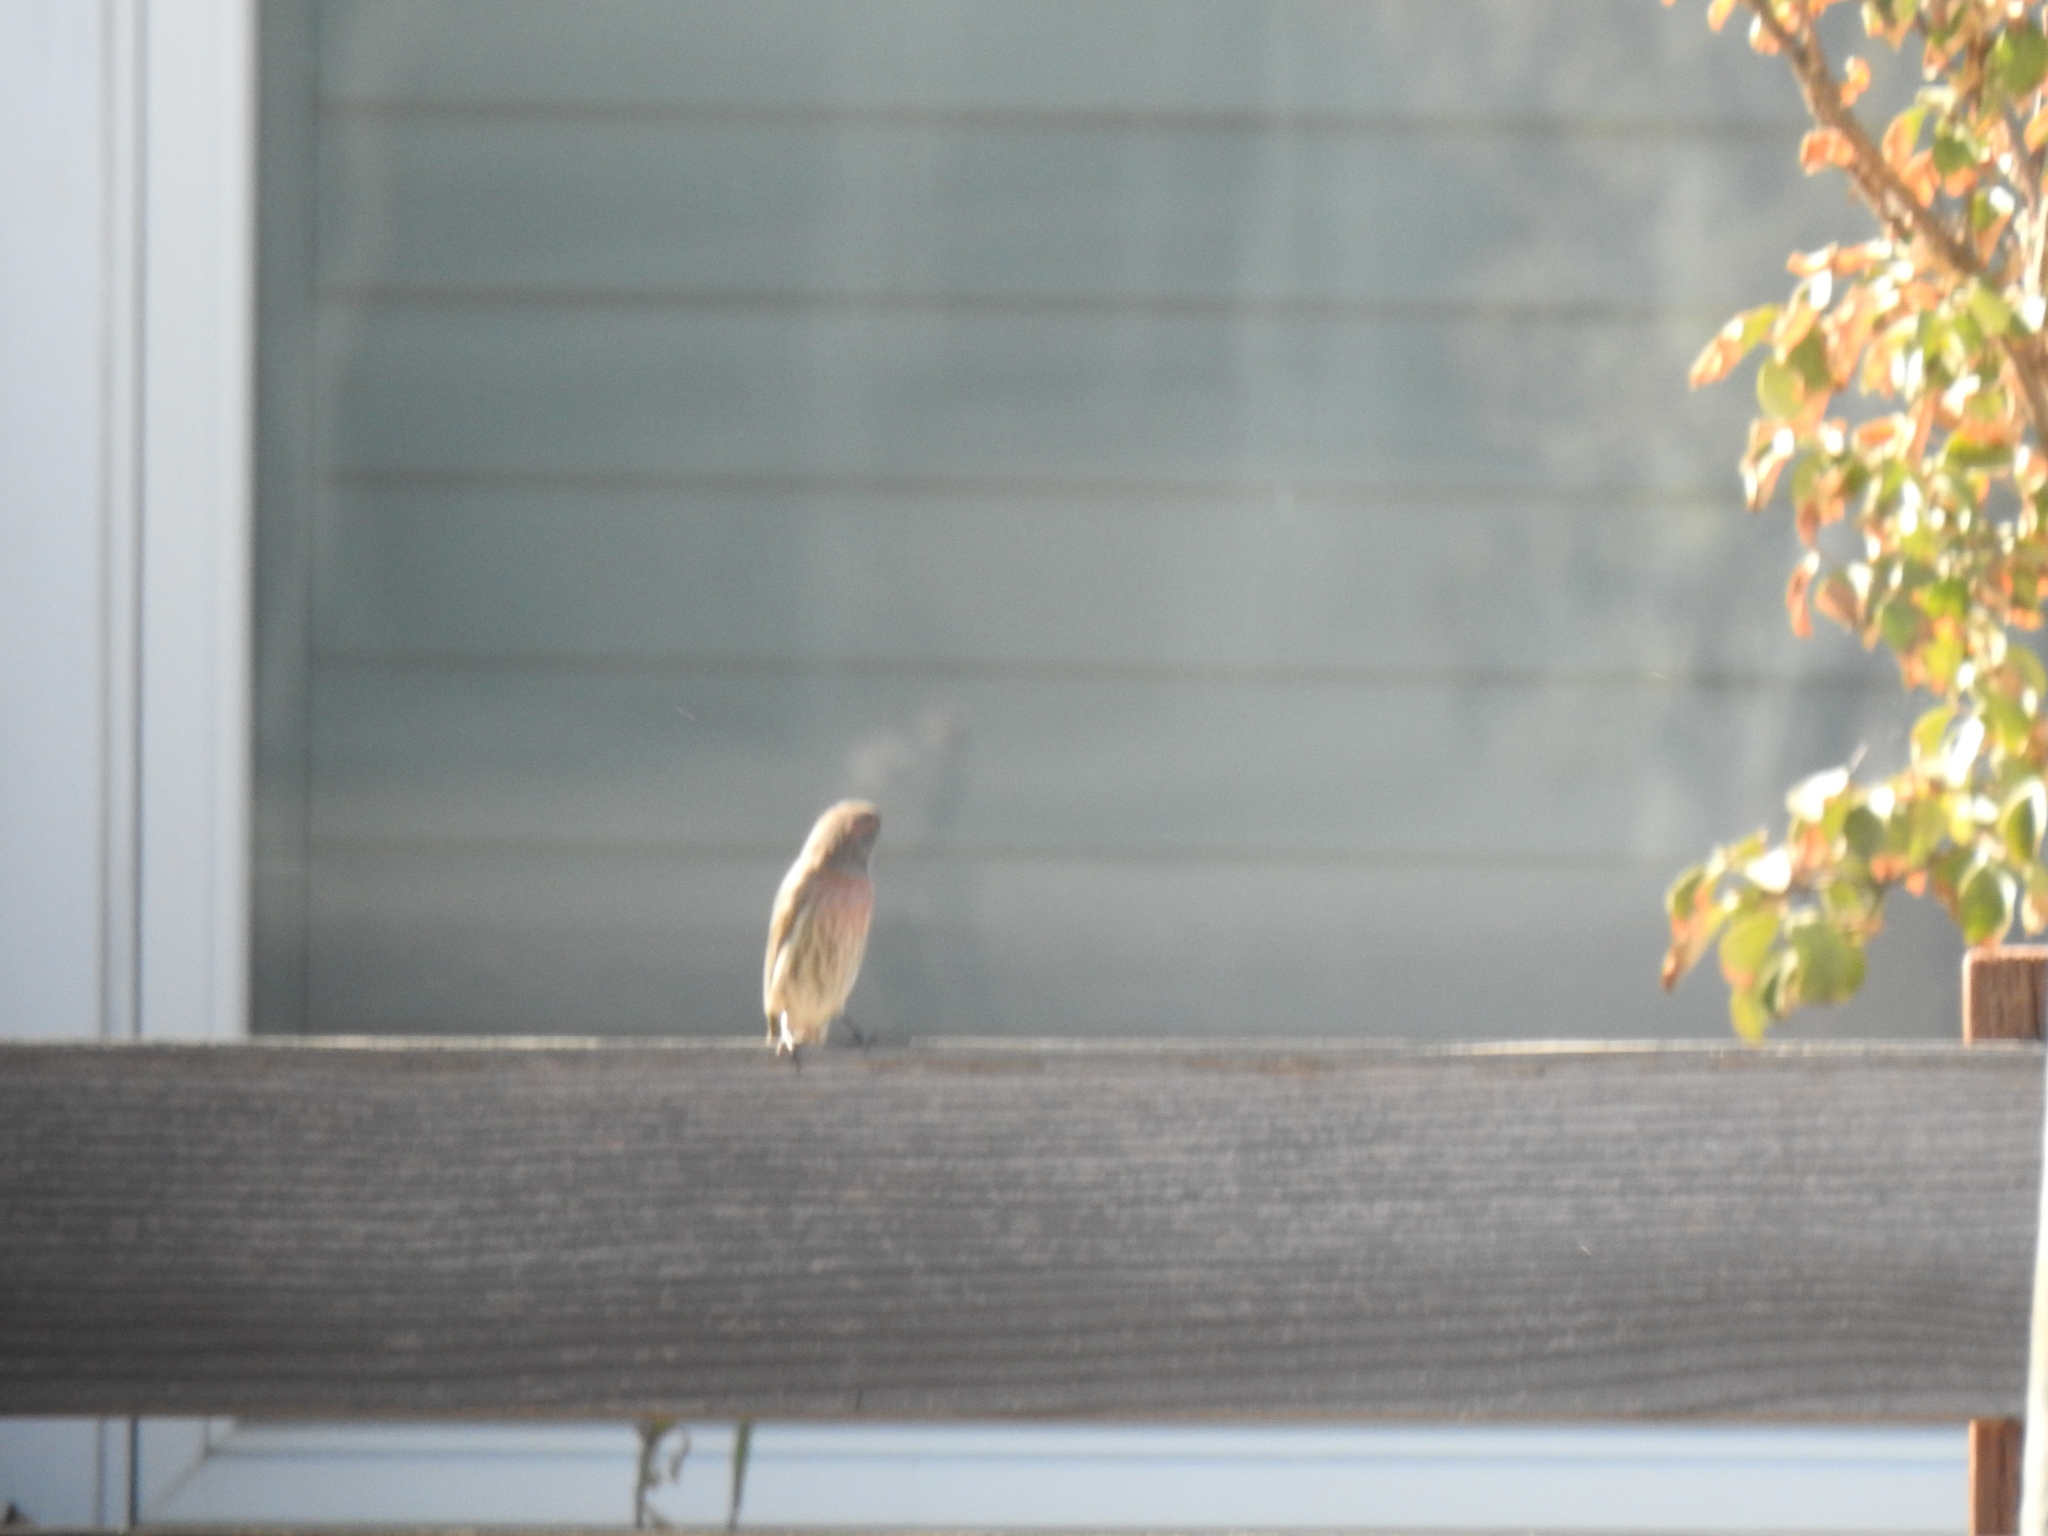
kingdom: Animalia
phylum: Chordata
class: Aves
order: Passeriformes
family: Fringillidae
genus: Haemorhous
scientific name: Haemorhous mexicanus
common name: House finch
